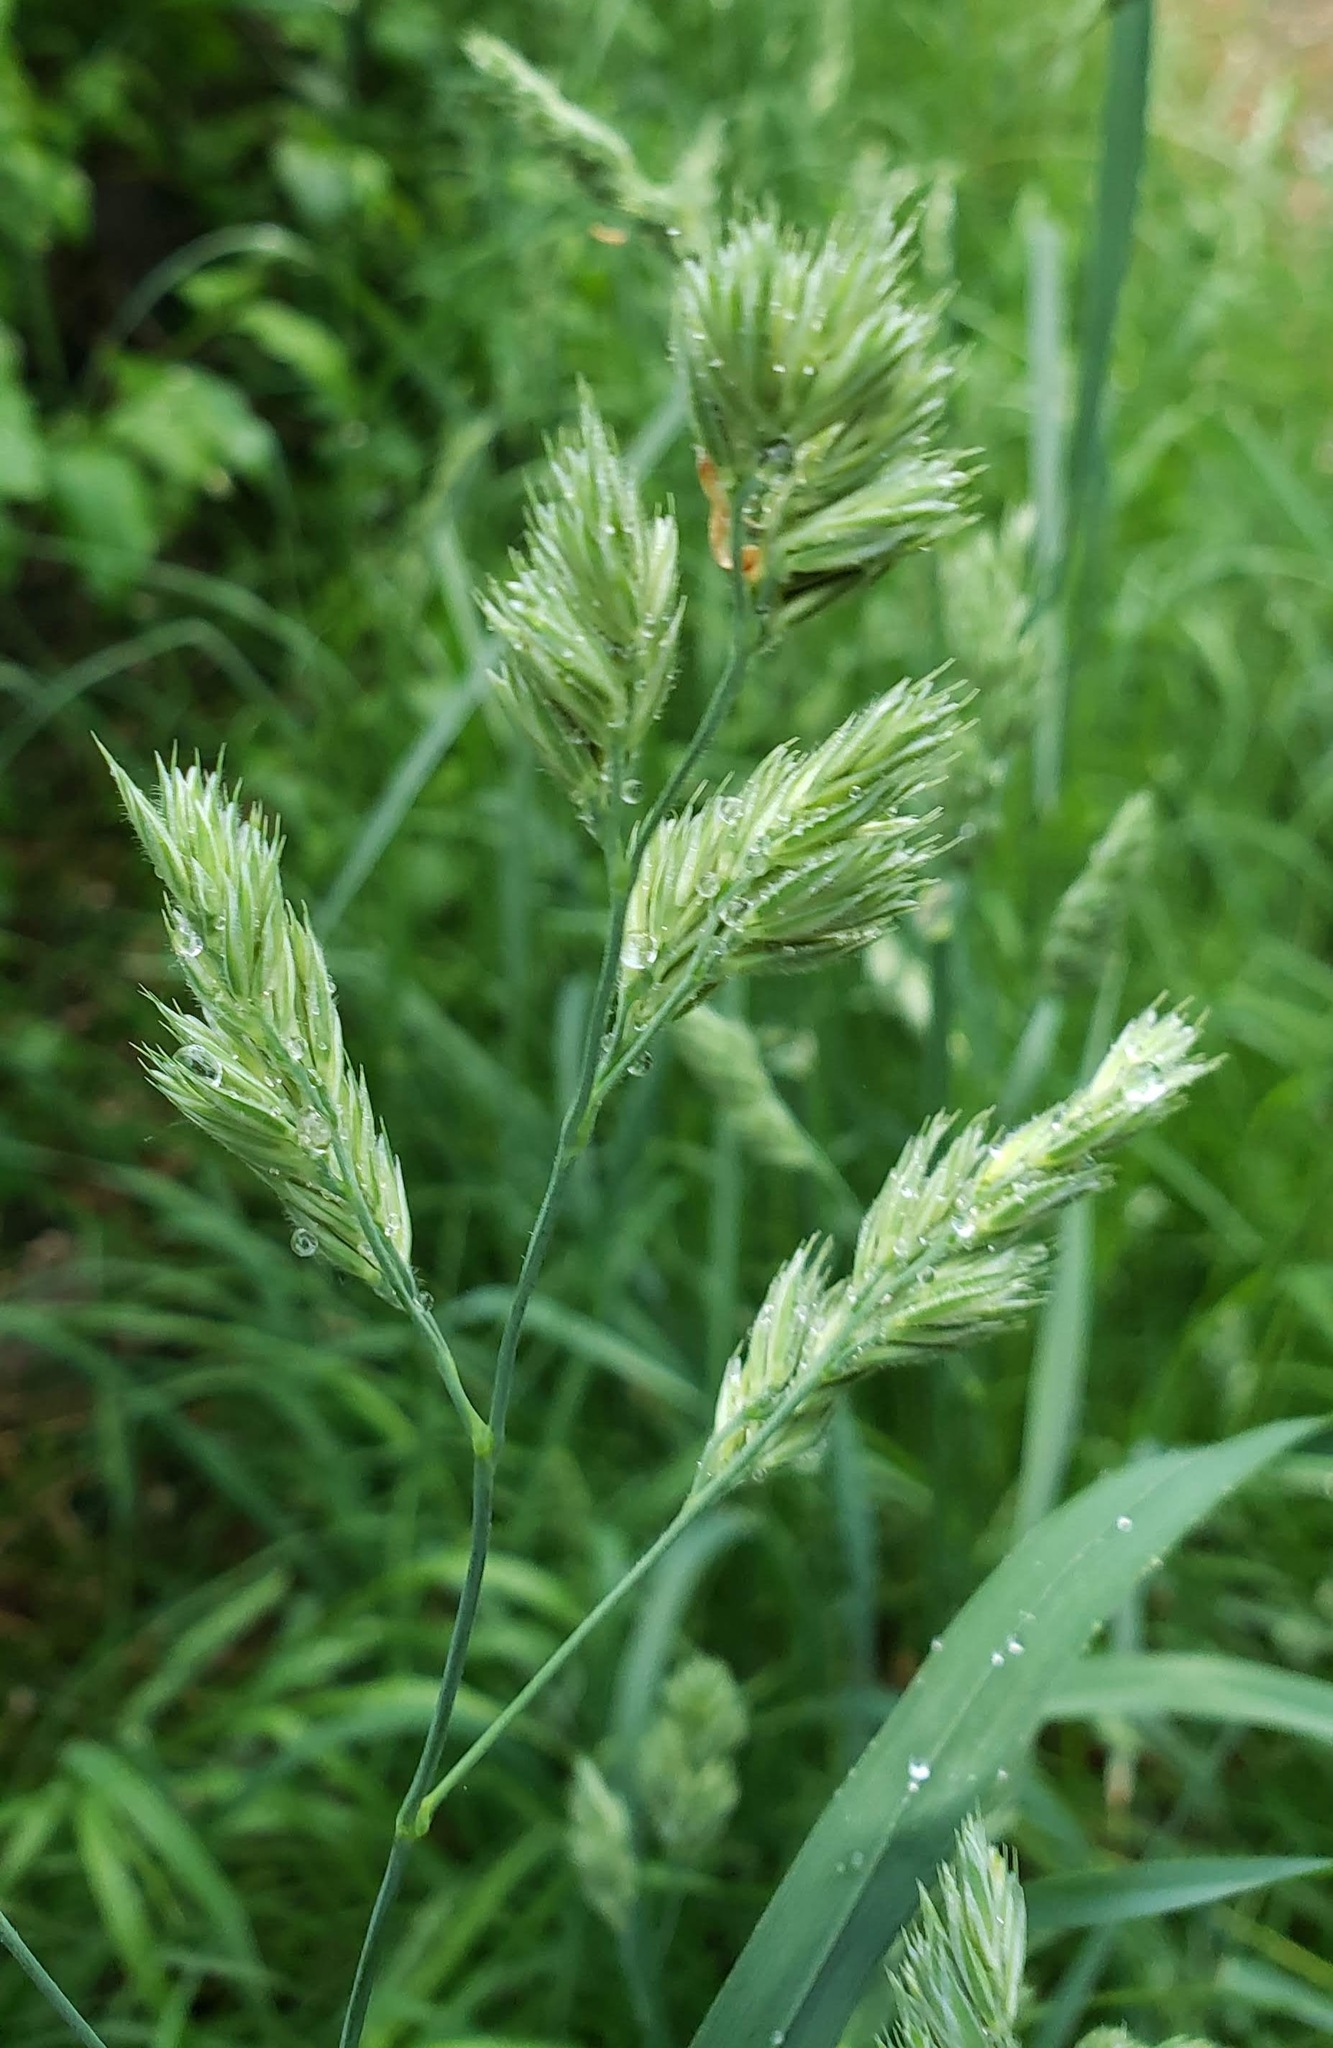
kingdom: Plantae
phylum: Tracheophyta
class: Liliopsida
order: Poales
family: Poaceae
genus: Dactylis
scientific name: Dactylis glomerata
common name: Orchardgrass
